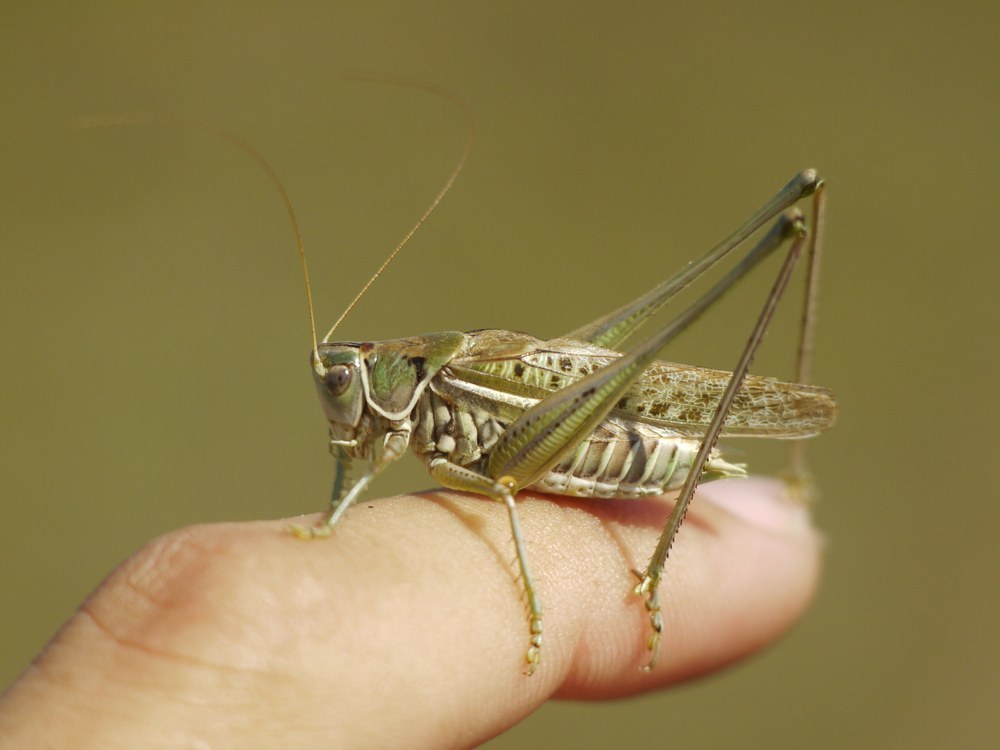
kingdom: Animalia
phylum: Arthropoda
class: Insecta
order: Orthoptera
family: Tettigoniidae
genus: Gampsocleis
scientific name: Gampsocleis glabra
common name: Heath bushcricket
